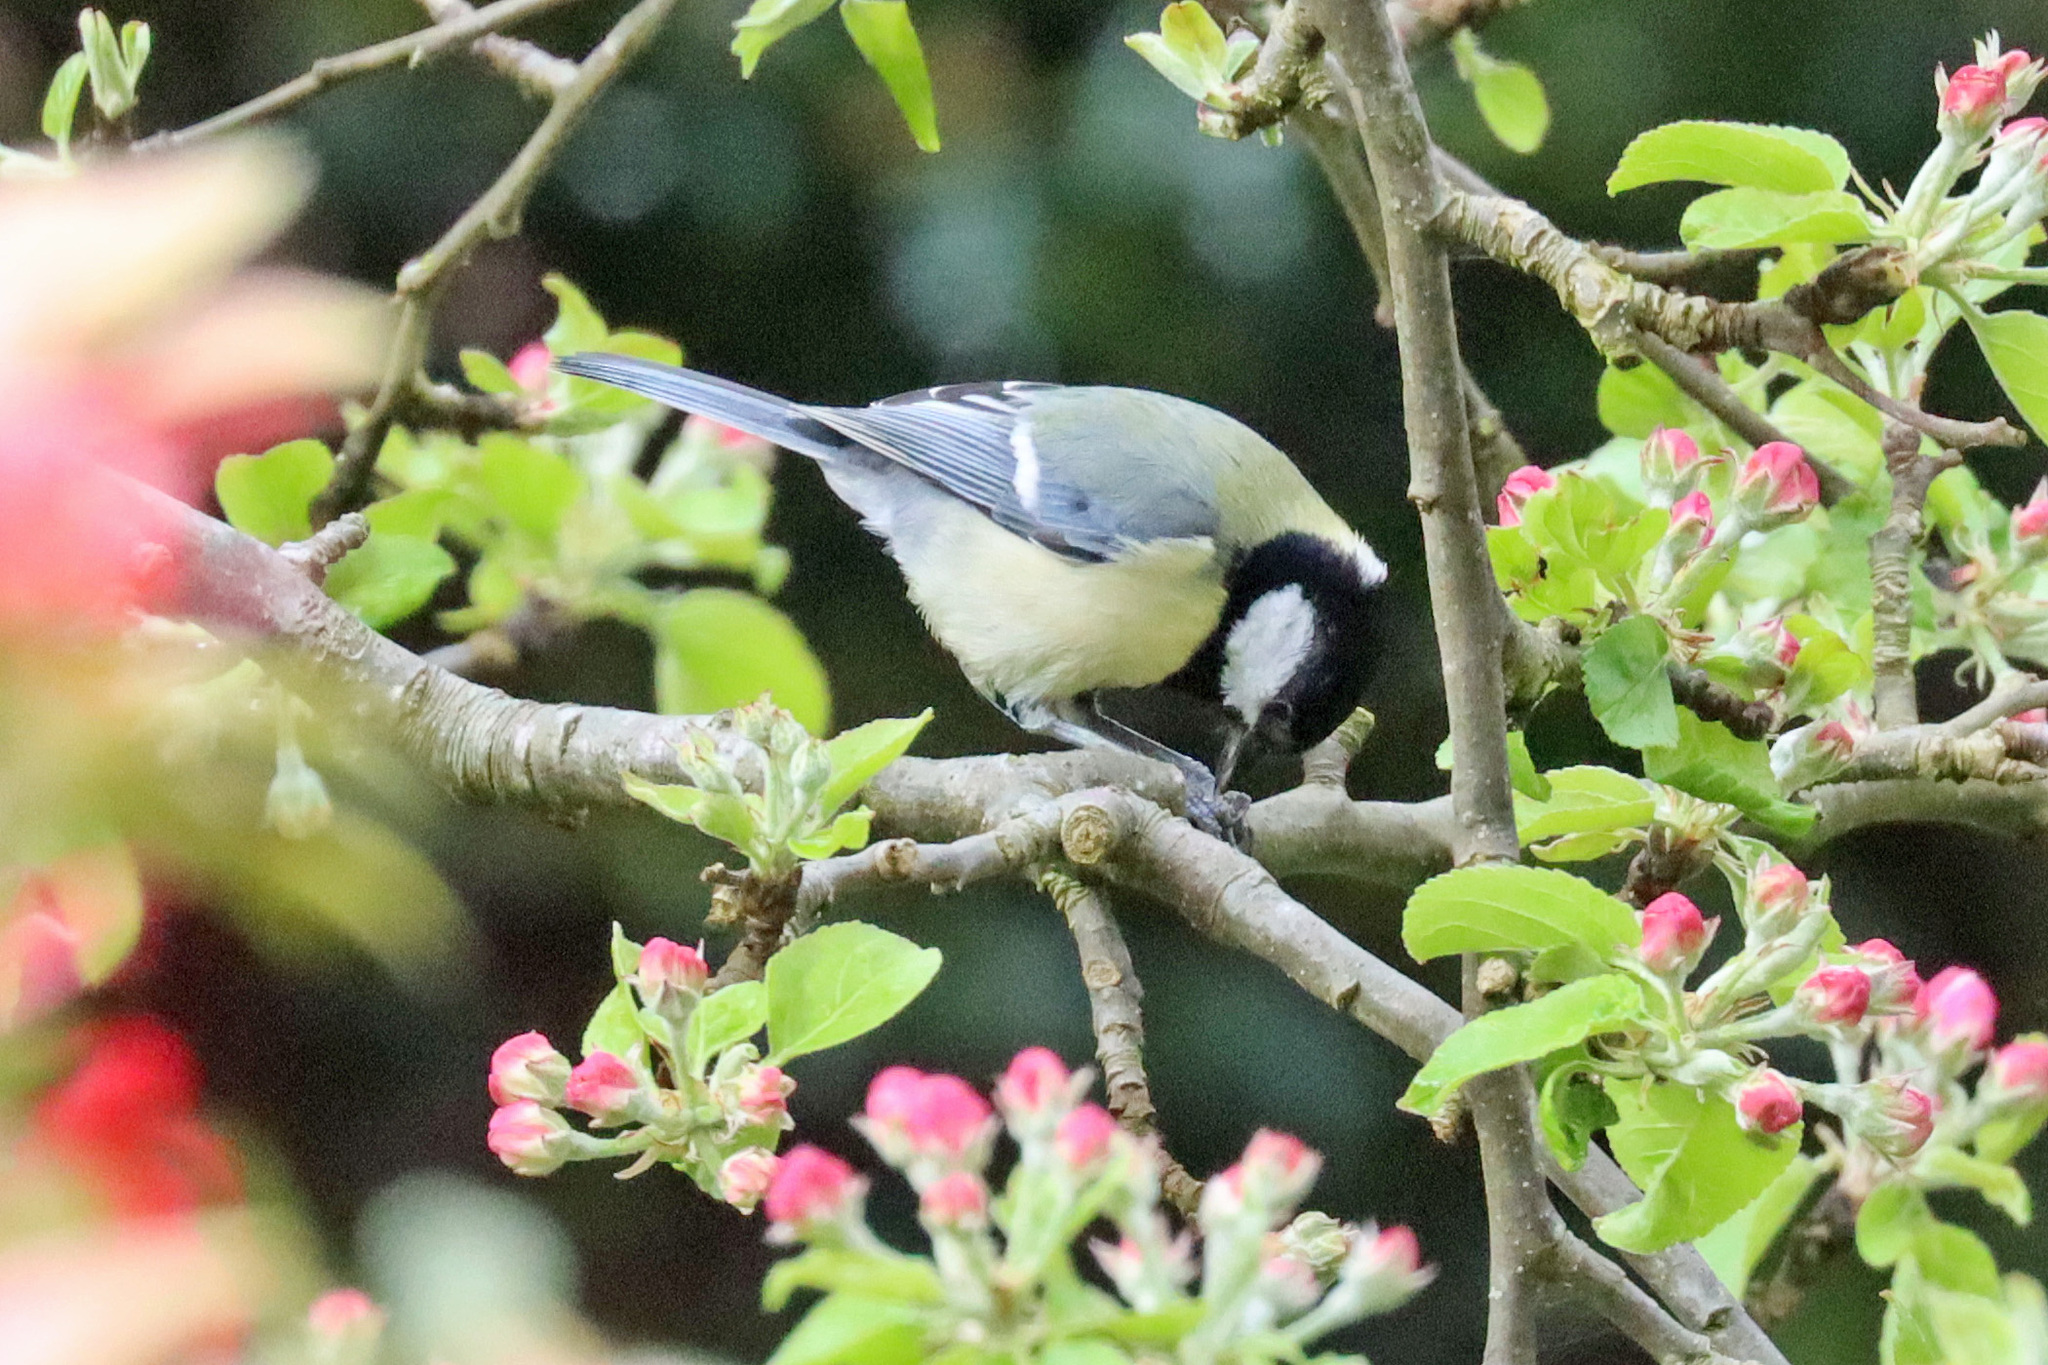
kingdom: Animalia
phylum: Chordata
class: Aves
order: Passeriformes
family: Paridae
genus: Parus
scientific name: Parus major
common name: Great tit
